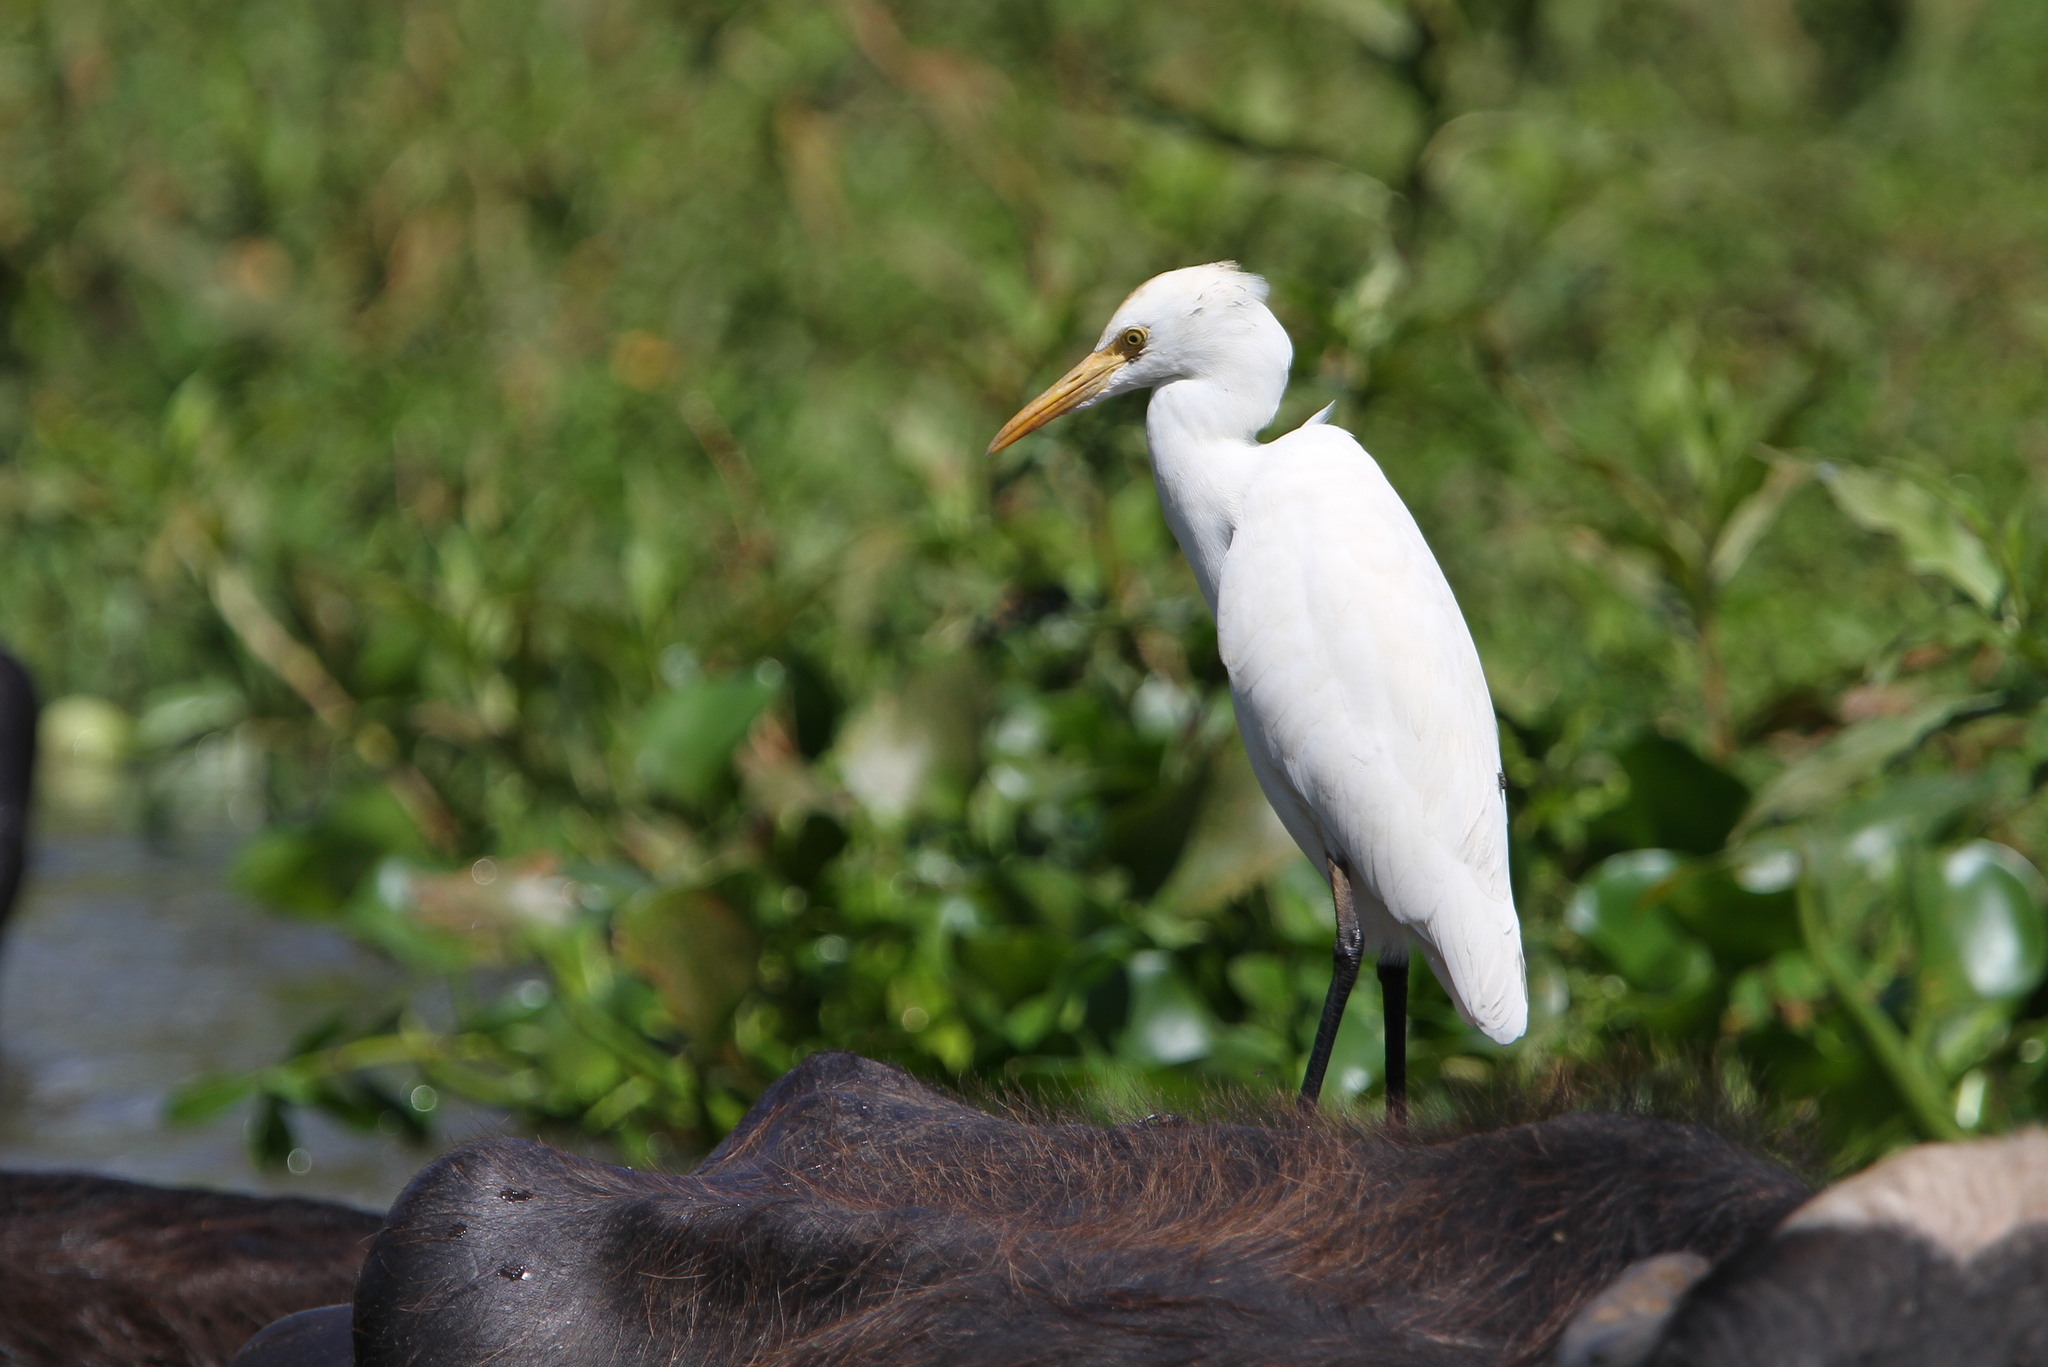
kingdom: Animalia
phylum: Chordata
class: Aves
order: Pelecaniformes
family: Ardeidae
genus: Bubulcus
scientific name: Bubulcus coromandus
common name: Eastern cattle egret
